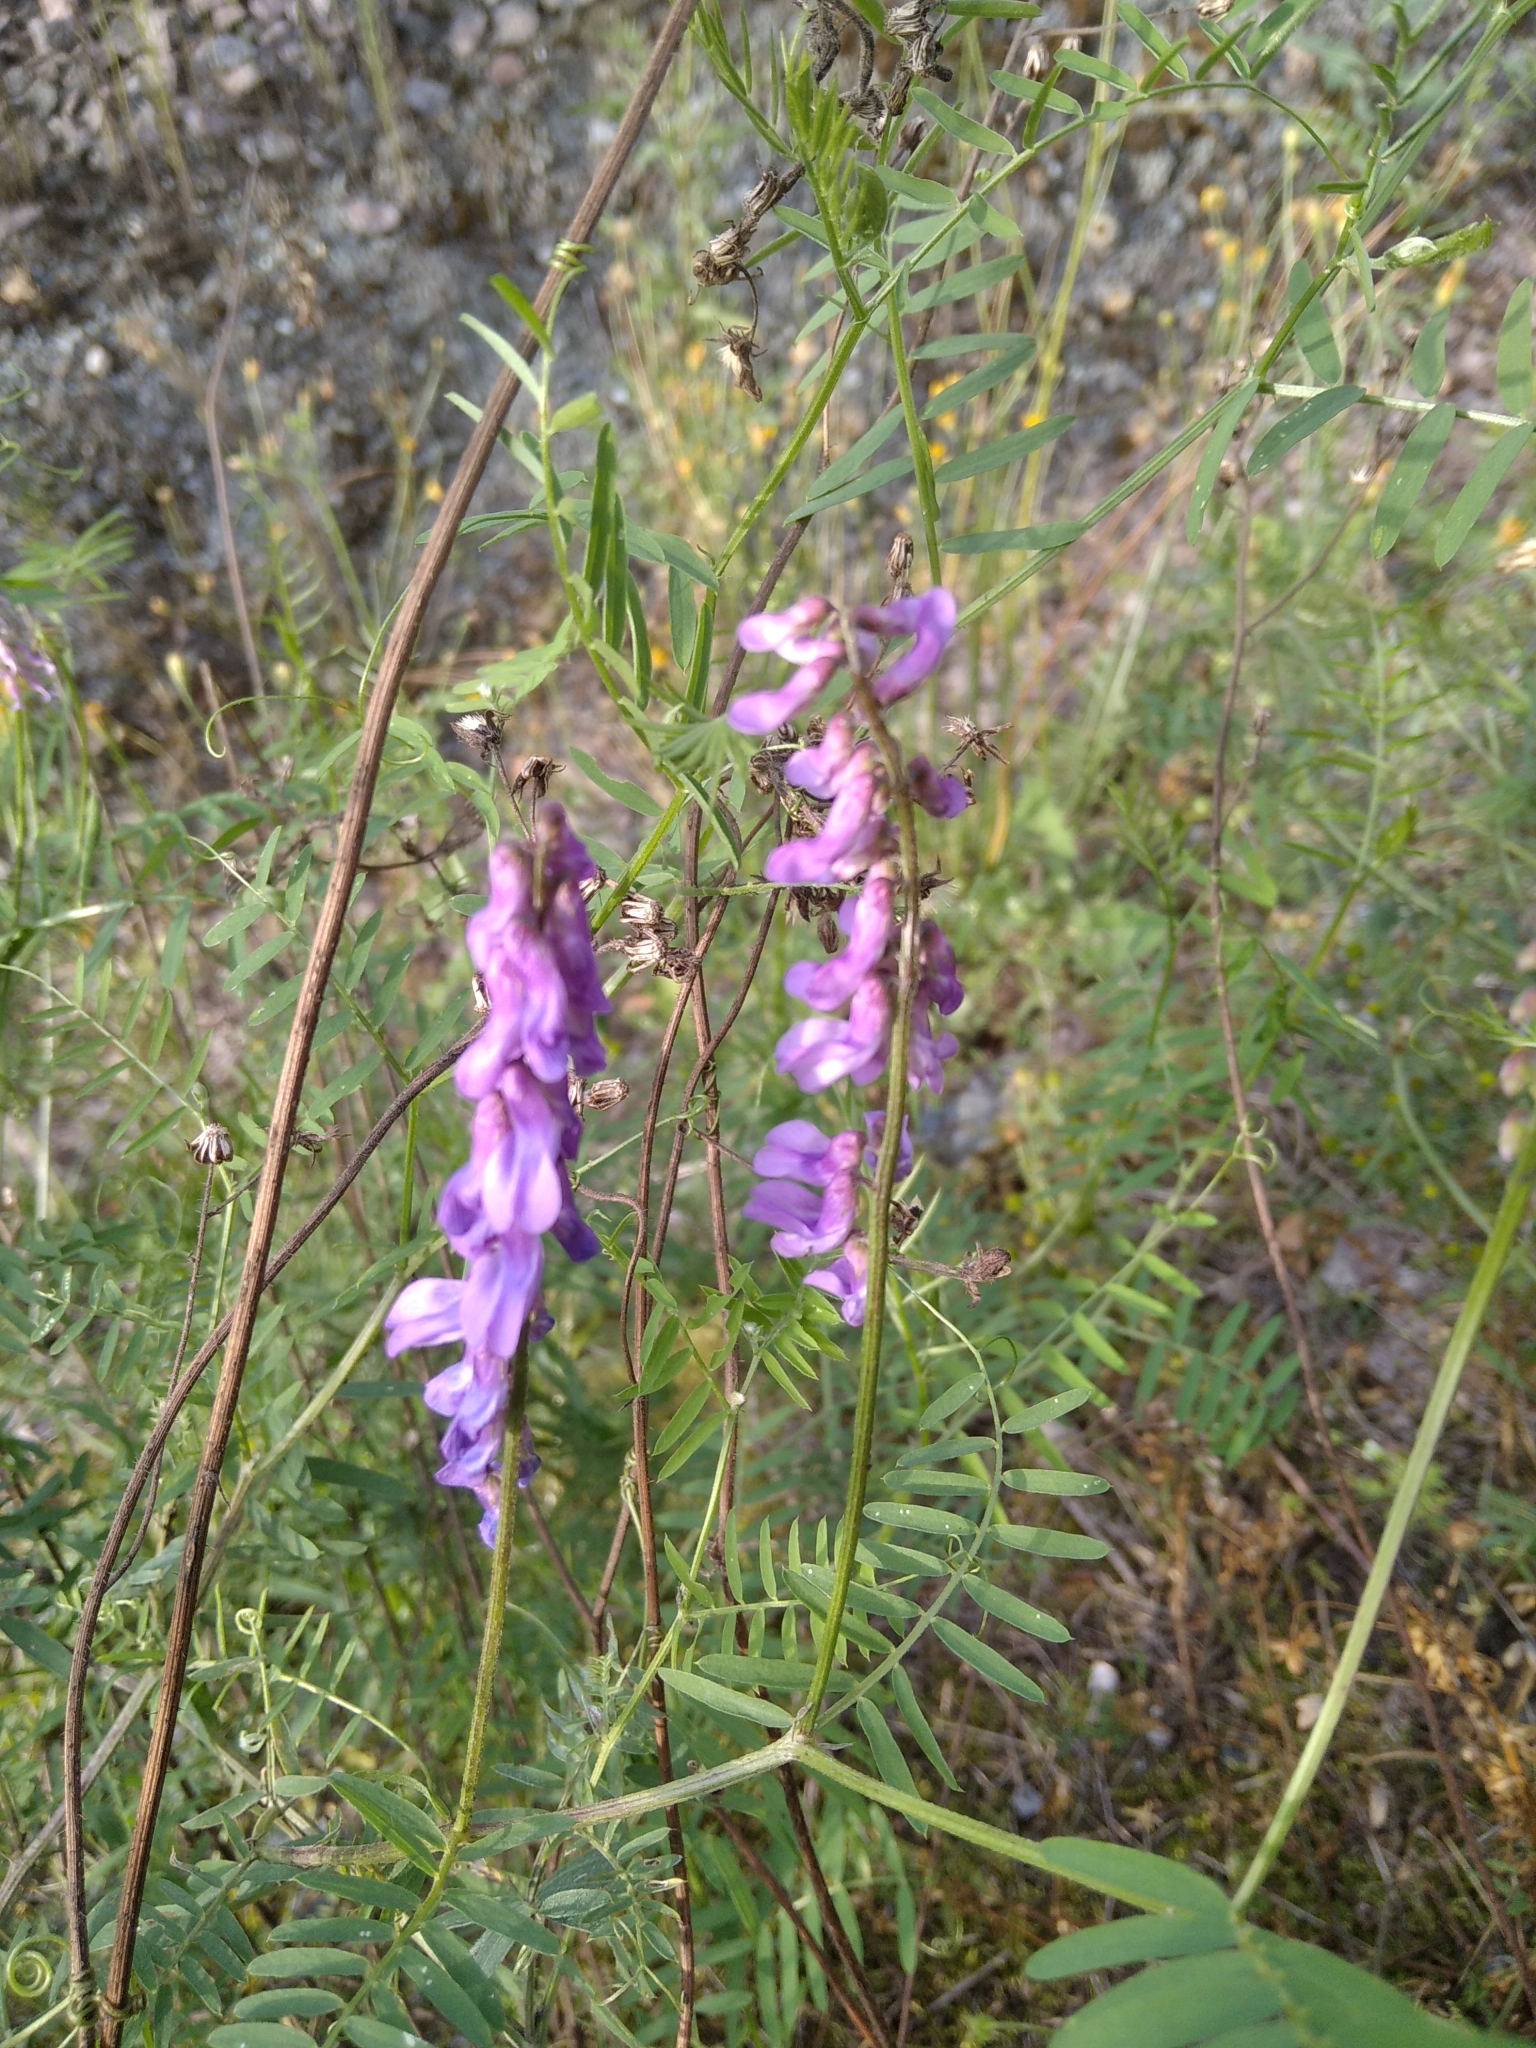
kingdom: Plantae
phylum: Tracheophyta
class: Magnoliopsida
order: Fabales
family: Fabaceae
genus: Vicia
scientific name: Vicia cracca
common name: Bird vetch
